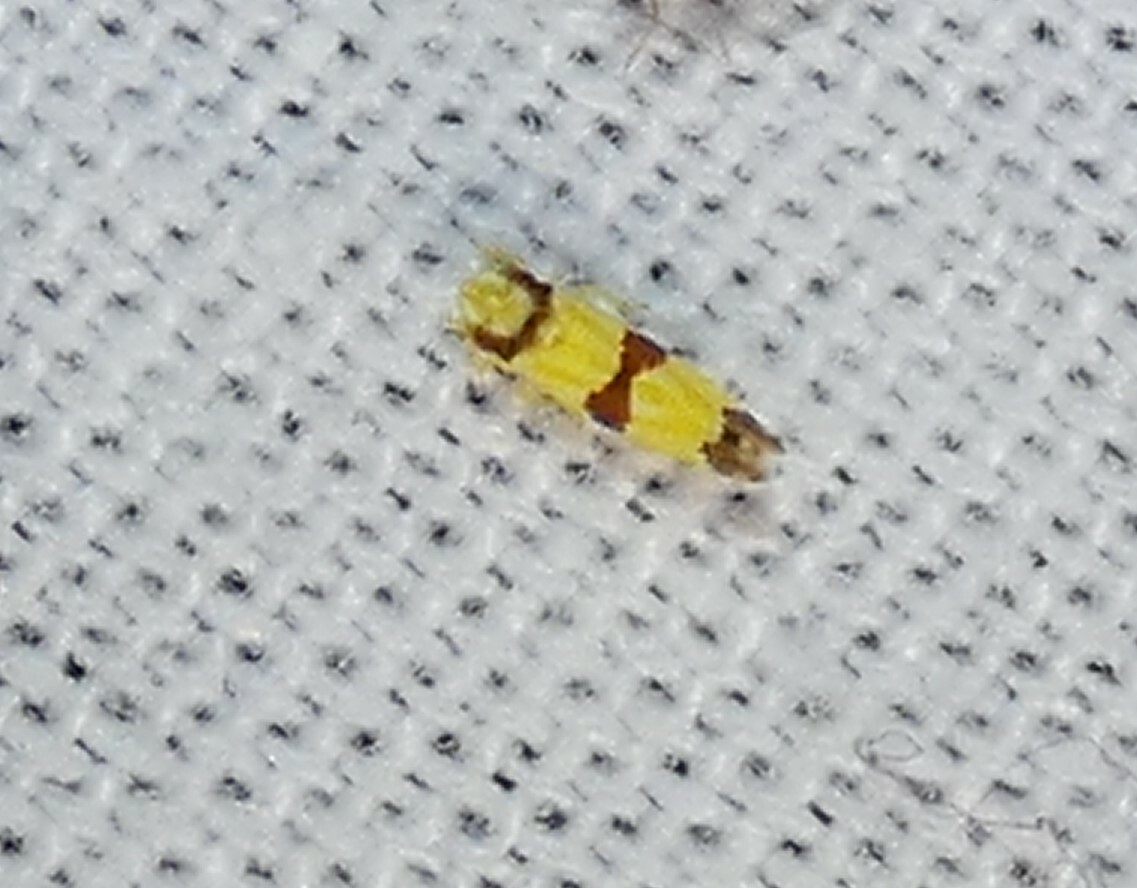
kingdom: Animalia
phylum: Arthropoda
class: Insecta
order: Hemiptera
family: Cicadellidae
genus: Erythroneura
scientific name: Erythroneura calycula
